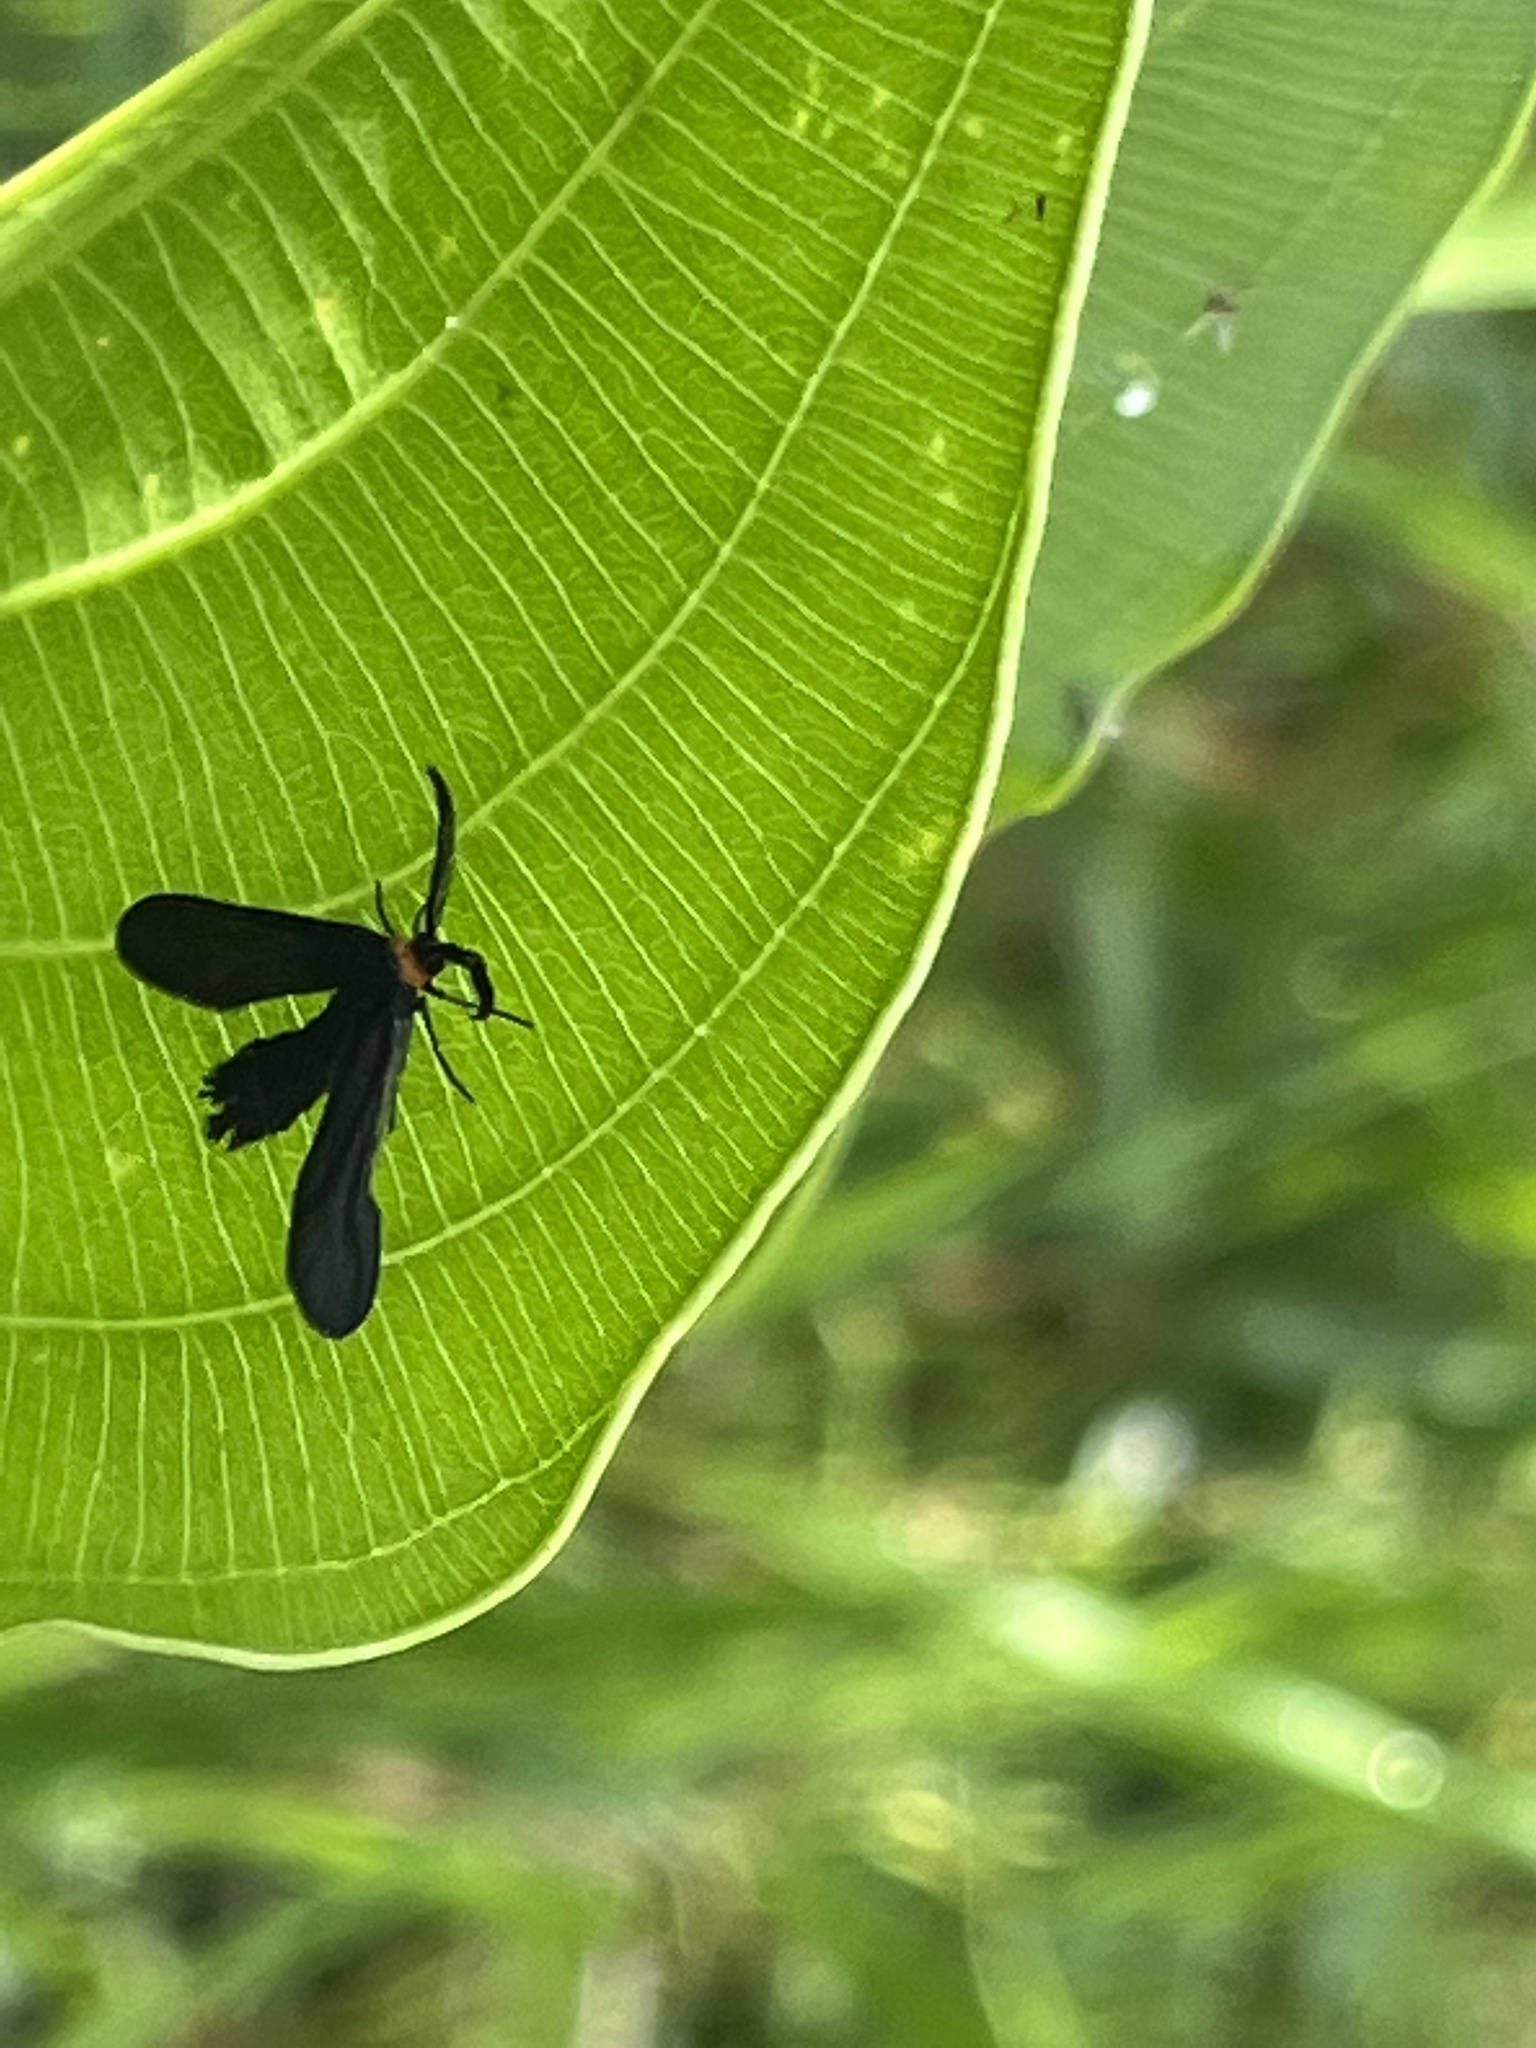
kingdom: Animalia
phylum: Arthropoda
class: Insecta
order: Lepidoptera
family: Zygaenidae
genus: Harrisina
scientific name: Harrisina americana
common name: Grapeleaf skeletonizer moth
